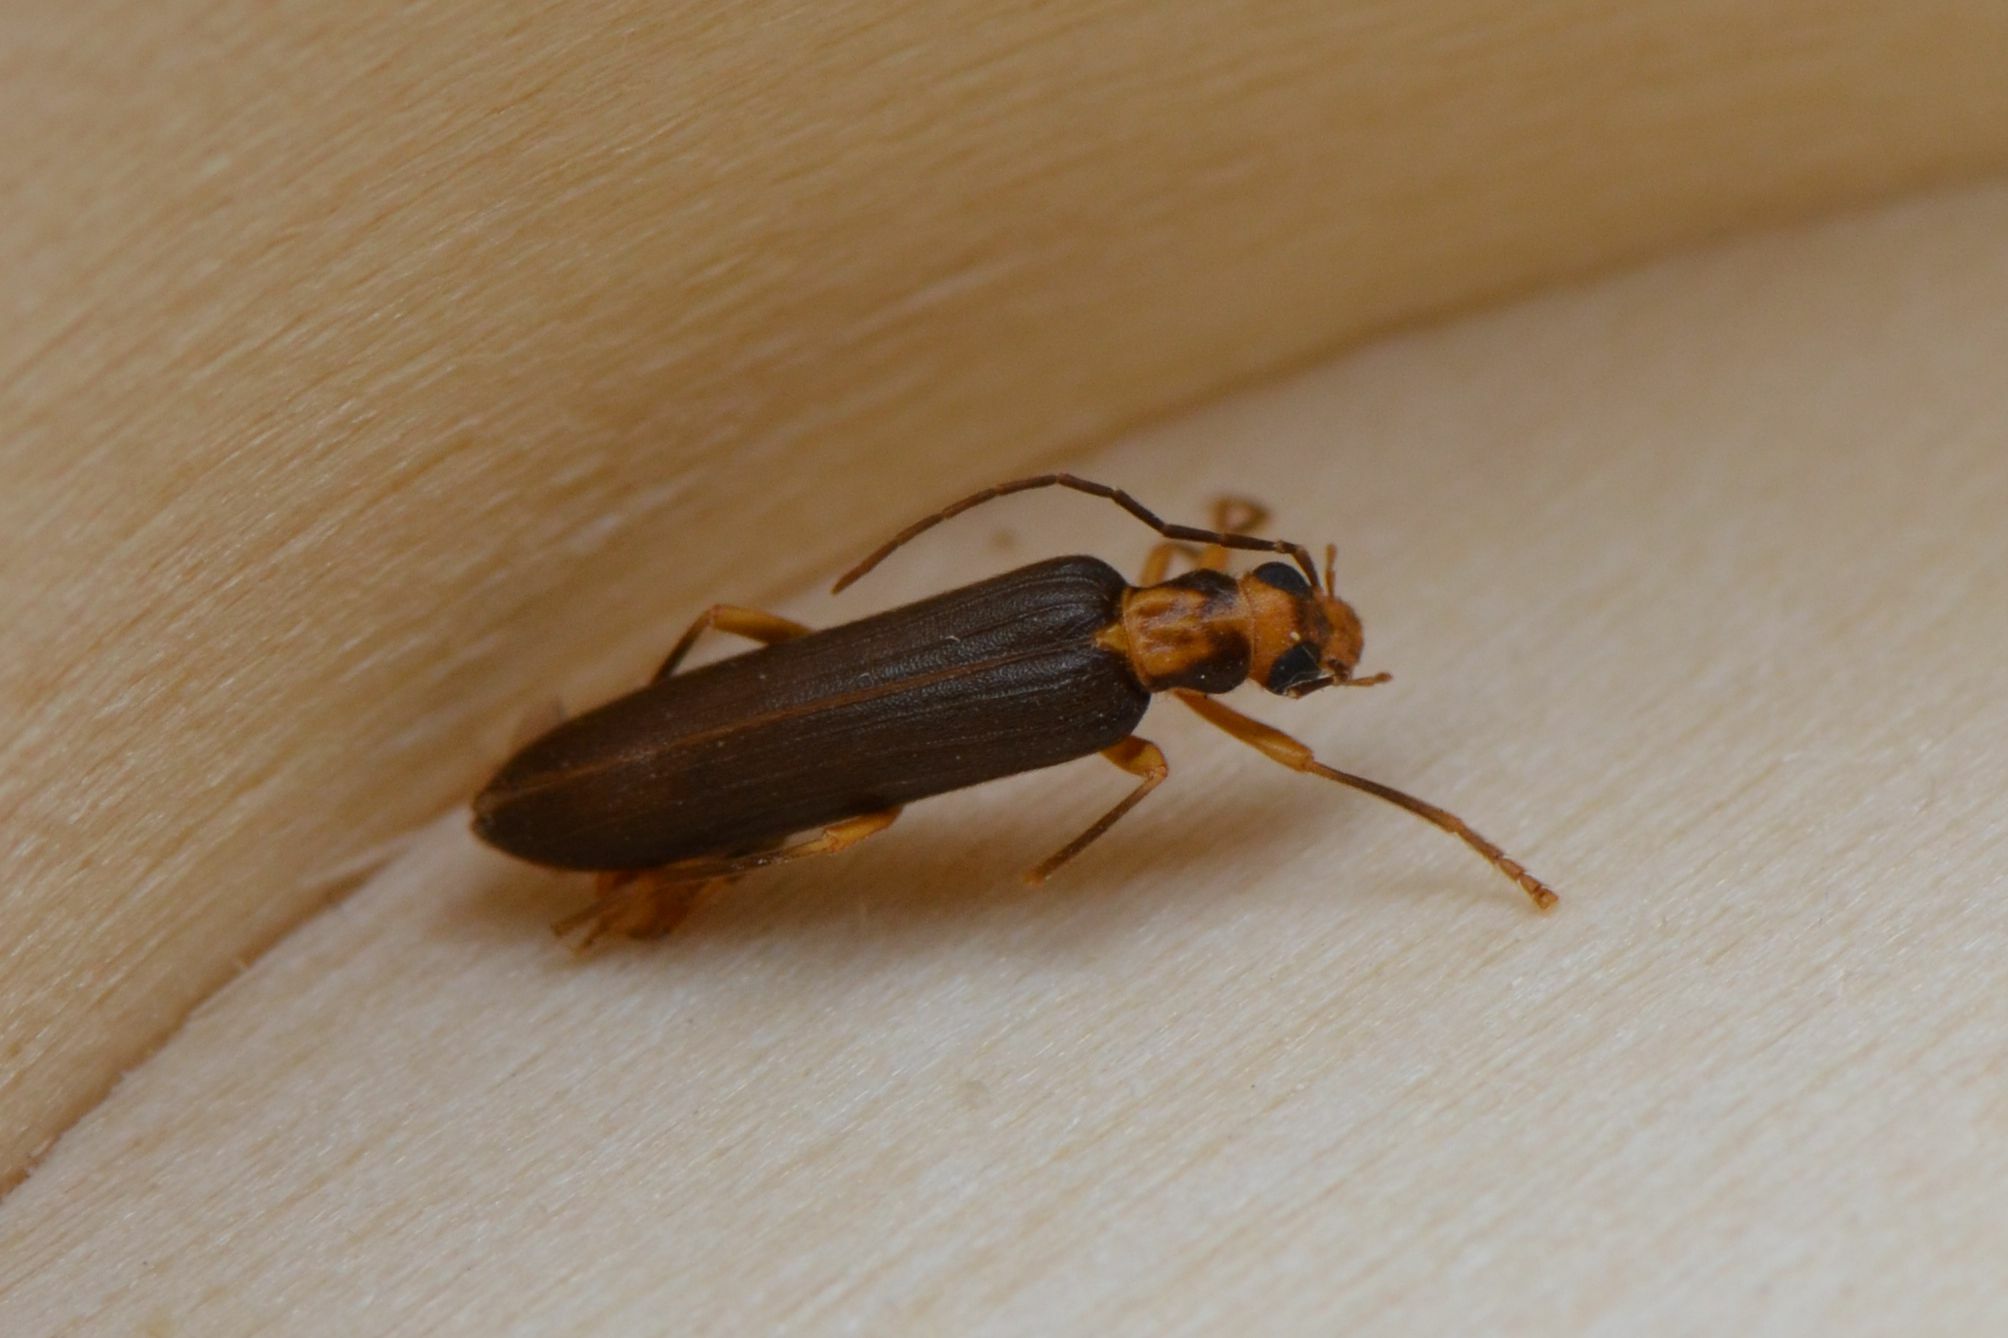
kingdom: Animalia
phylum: Arthropoda
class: Insecta
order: Coleoptera
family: Oedemeridae
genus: Nacerdes
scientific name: Nacerdes carniolica
